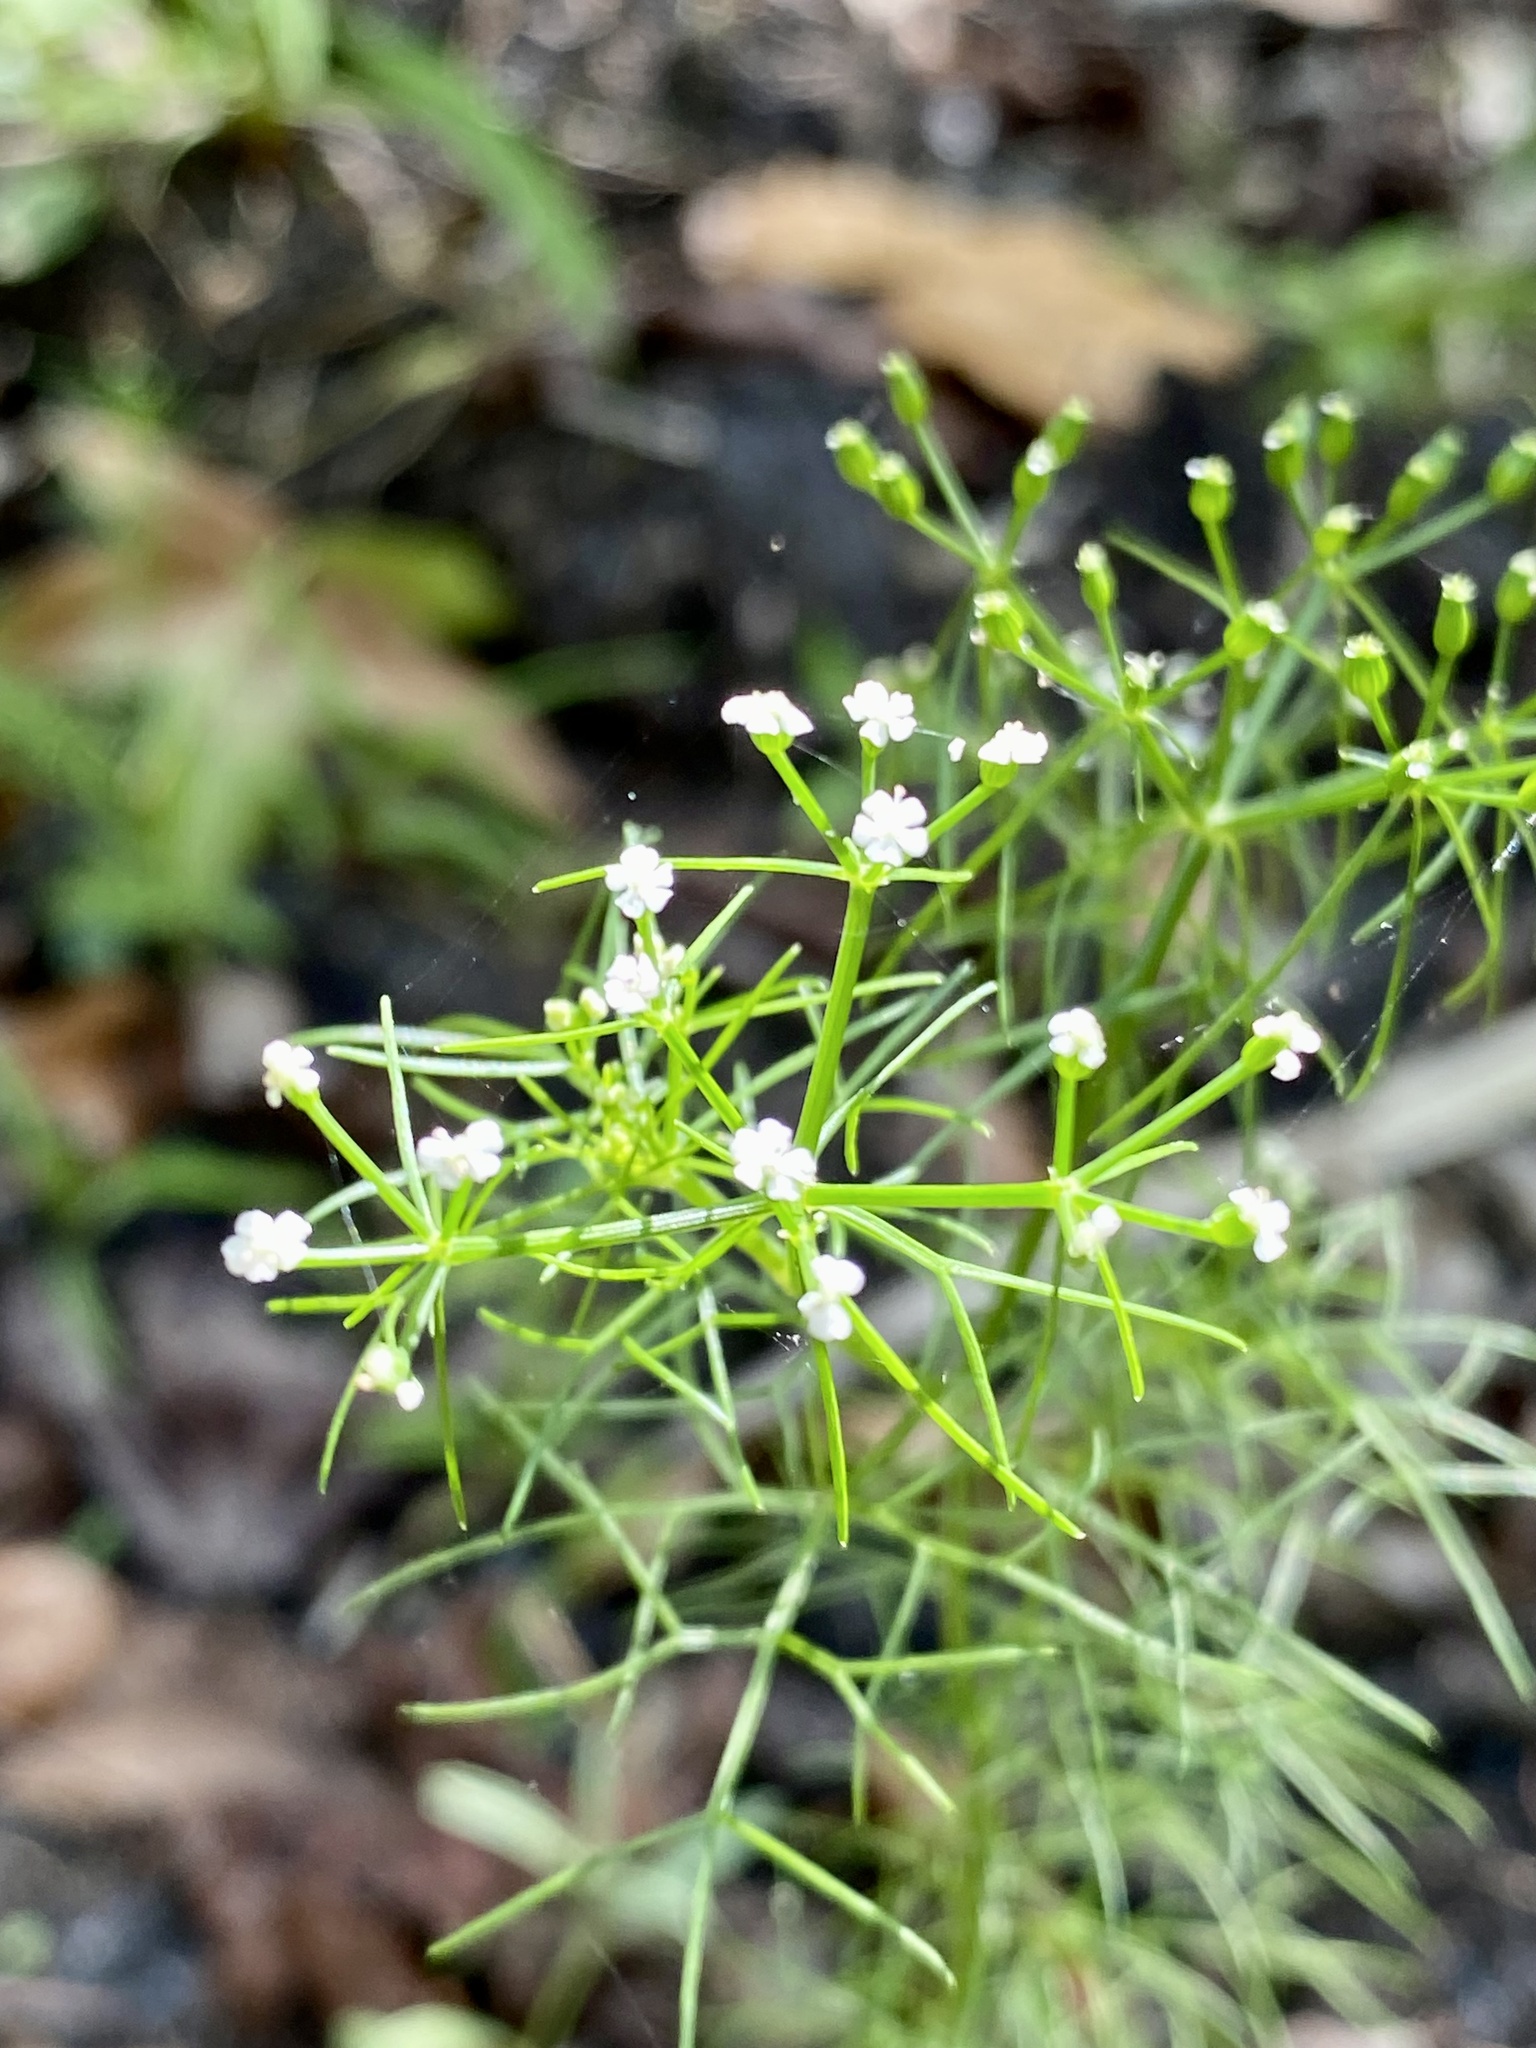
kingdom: Plantae
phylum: Tracheophyta
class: Magnoliopsida
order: Apiales
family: Apiaceae
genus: Ptilimnium
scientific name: Ptilimnium capillaceum
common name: Herbwilliam
